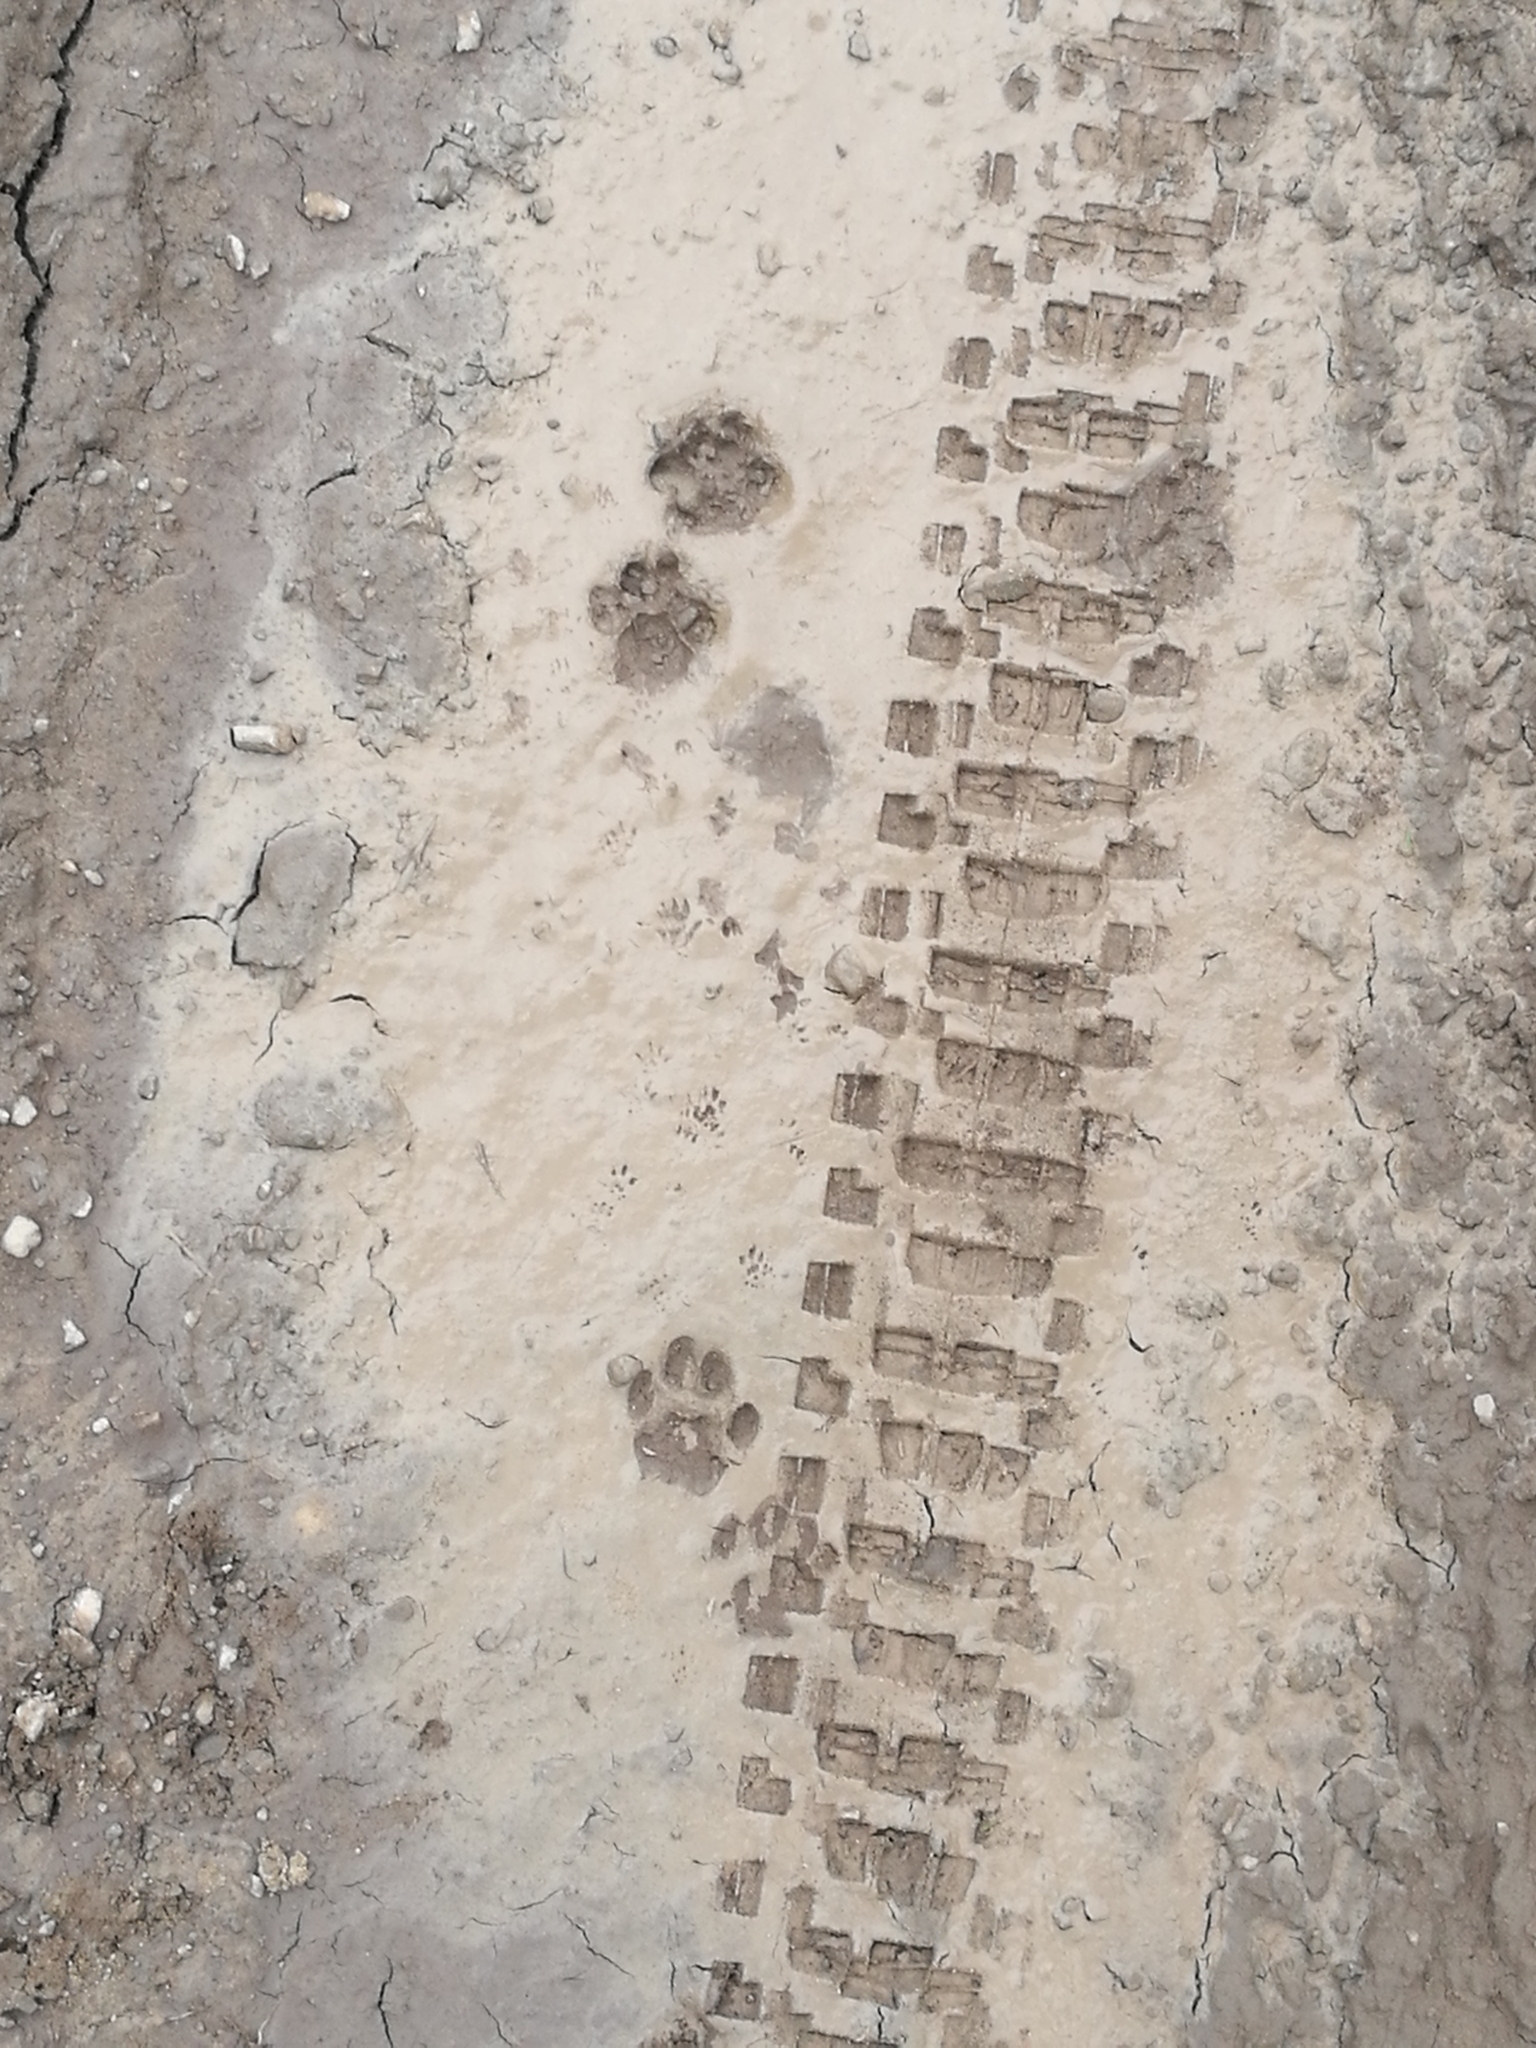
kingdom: Animalia
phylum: Chordata
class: Mammalia
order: Carnivora
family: Felidae
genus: Felis
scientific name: Felis catus
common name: Domestic cat
